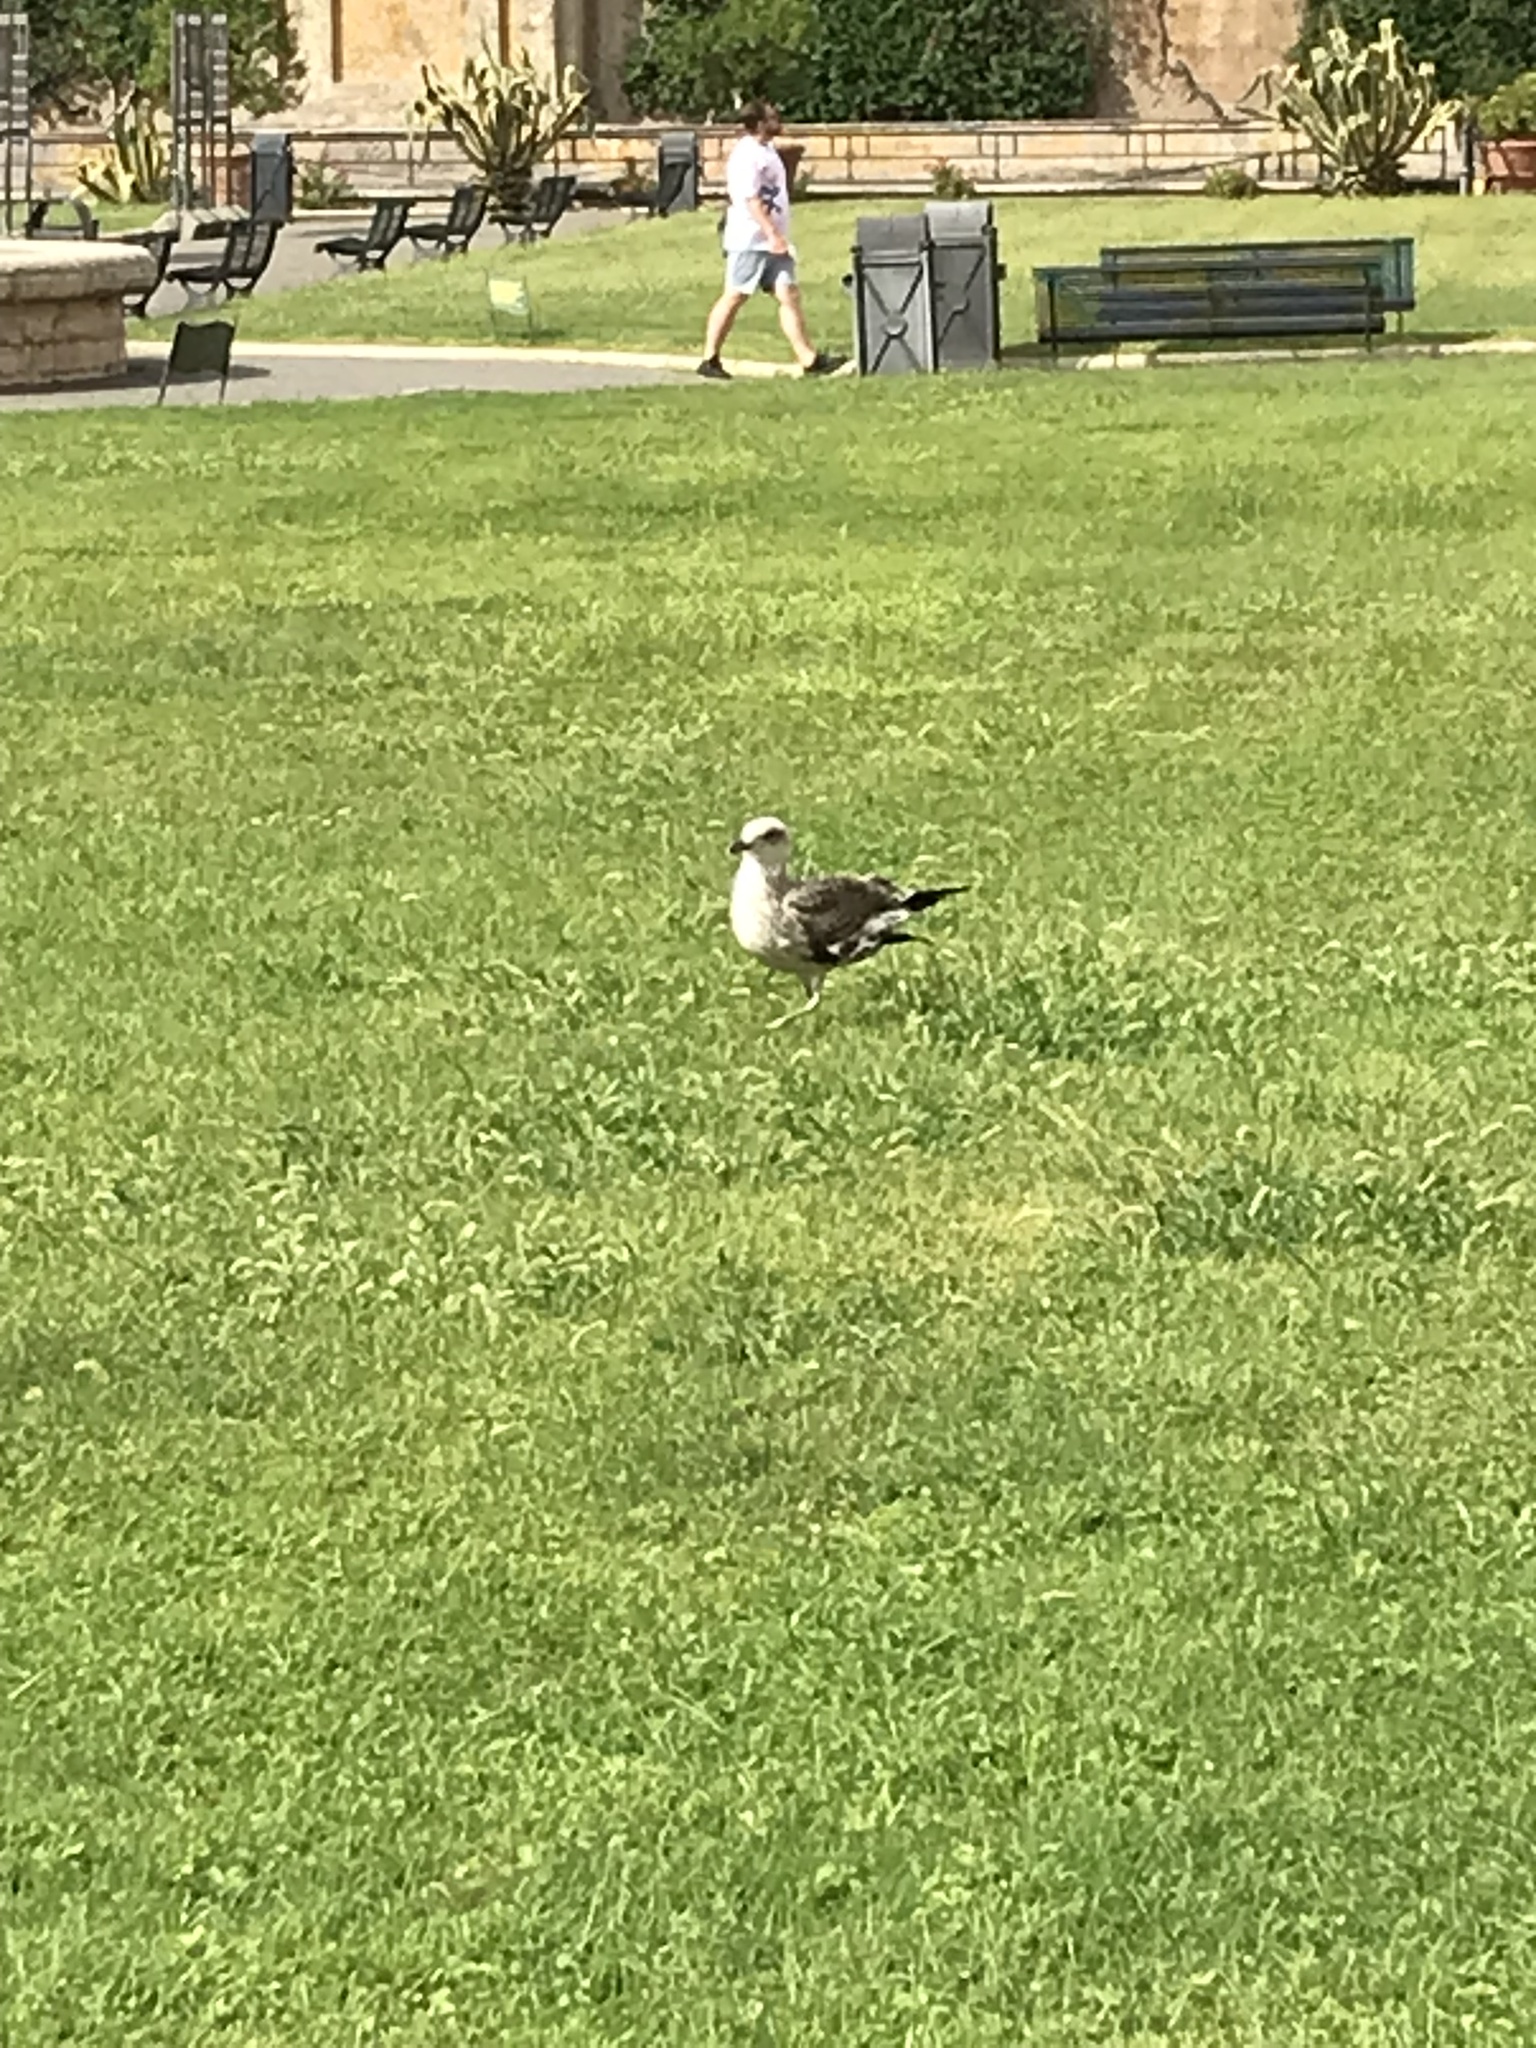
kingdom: Animalia
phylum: Chordata
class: Aves
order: Charadriiformes
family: Laridae
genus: Larus
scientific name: Larus michahellis
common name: Yellow-legged gull
